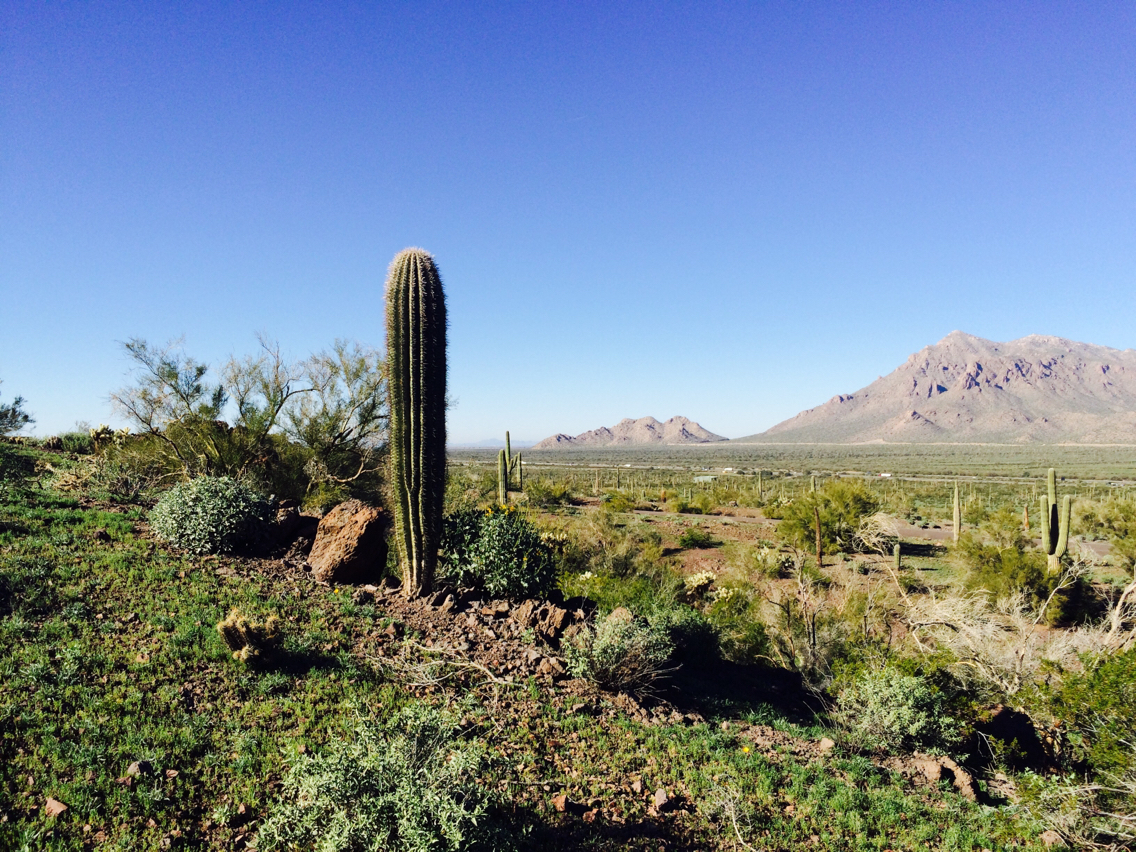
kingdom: Plantae
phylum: Tracheophyta
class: Magnoliopsida
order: Caryophyllales
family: Cactaceae
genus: Carnegiea
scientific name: Carnegiea gigantea
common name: Saguaro
